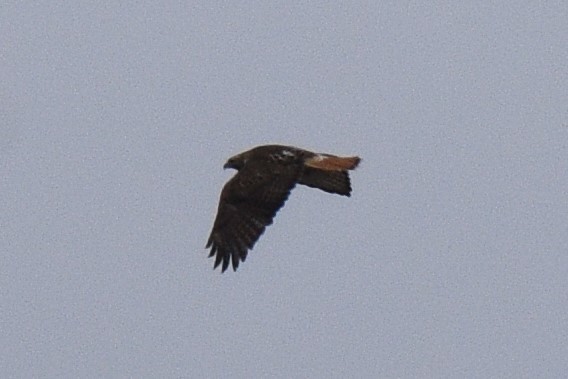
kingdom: Animalia
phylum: Chordata
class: Aves
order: Accipitriformes
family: Accipitridae
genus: Buteo
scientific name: Buteo jamaicensis
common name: Red-tailed hawk
